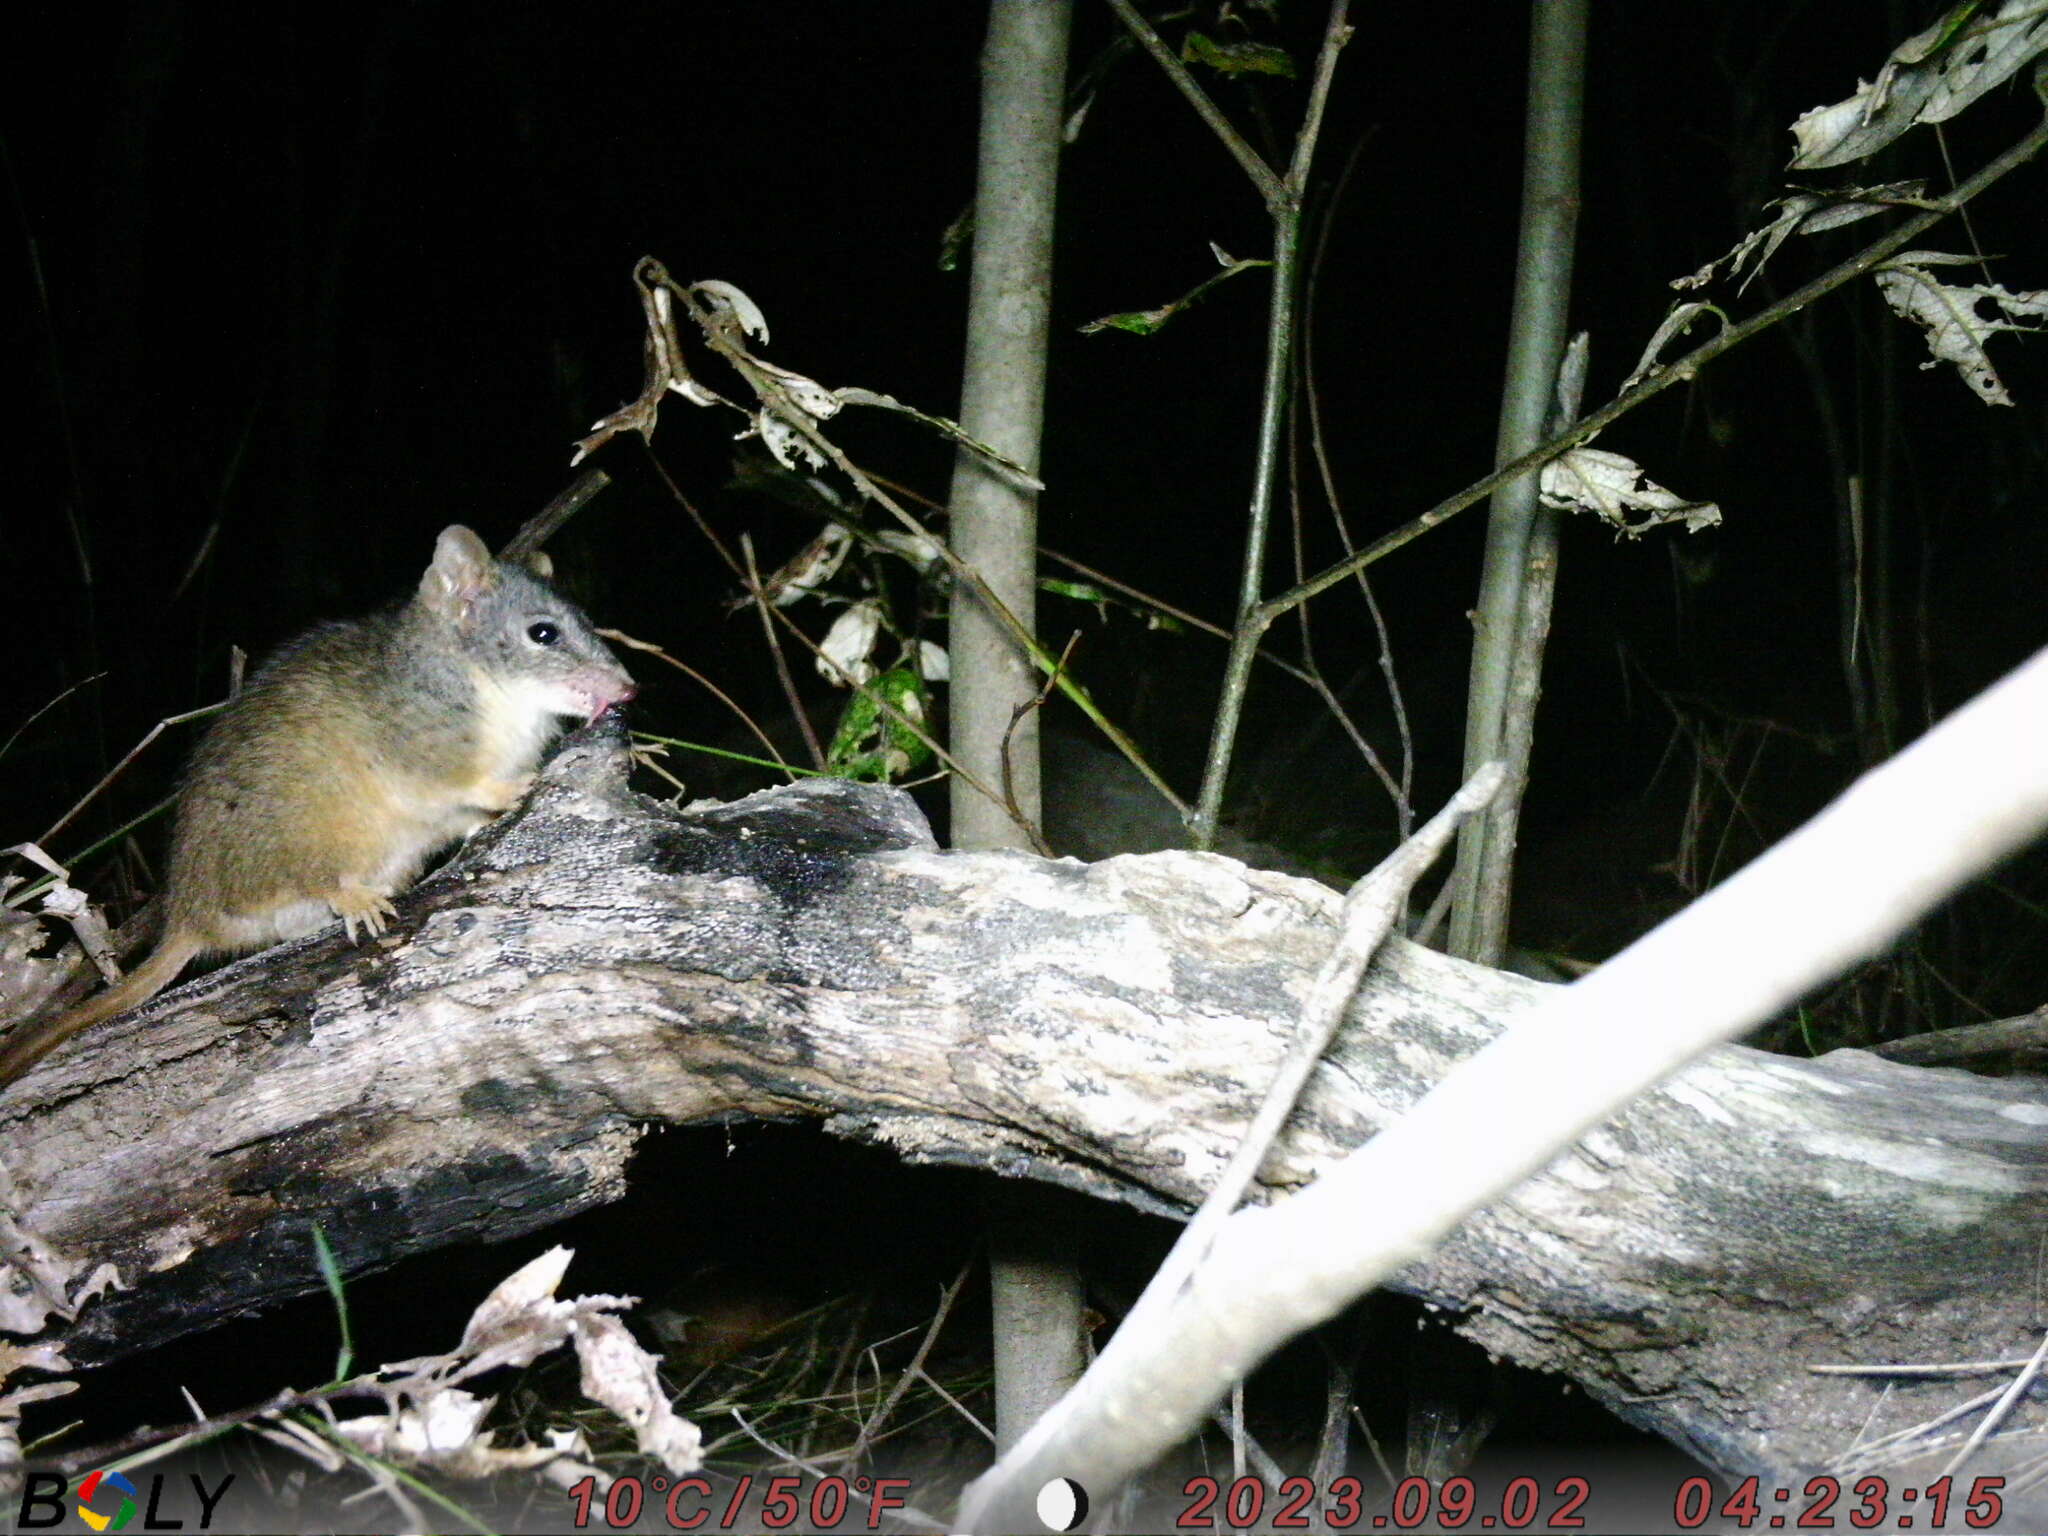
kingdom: Animalia
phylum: Chordata
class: Mammalia
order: Dasyuromorphia
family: Dasyuridae
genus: Antechinus
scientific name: Antechinus flavipes
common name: Yellow-footed antechinus
